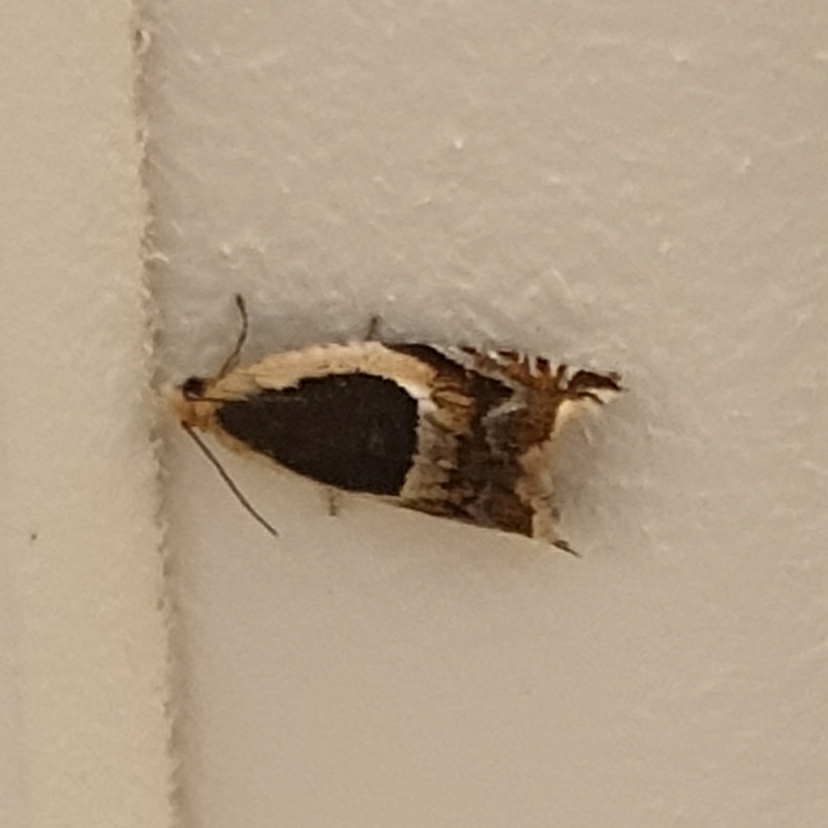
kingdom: Animalia
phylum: Arthropoda
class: Insecta
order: Lepidoptera
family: Tortricidae
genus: Ancylis
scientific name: Ancylis badiana
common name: Common roller
